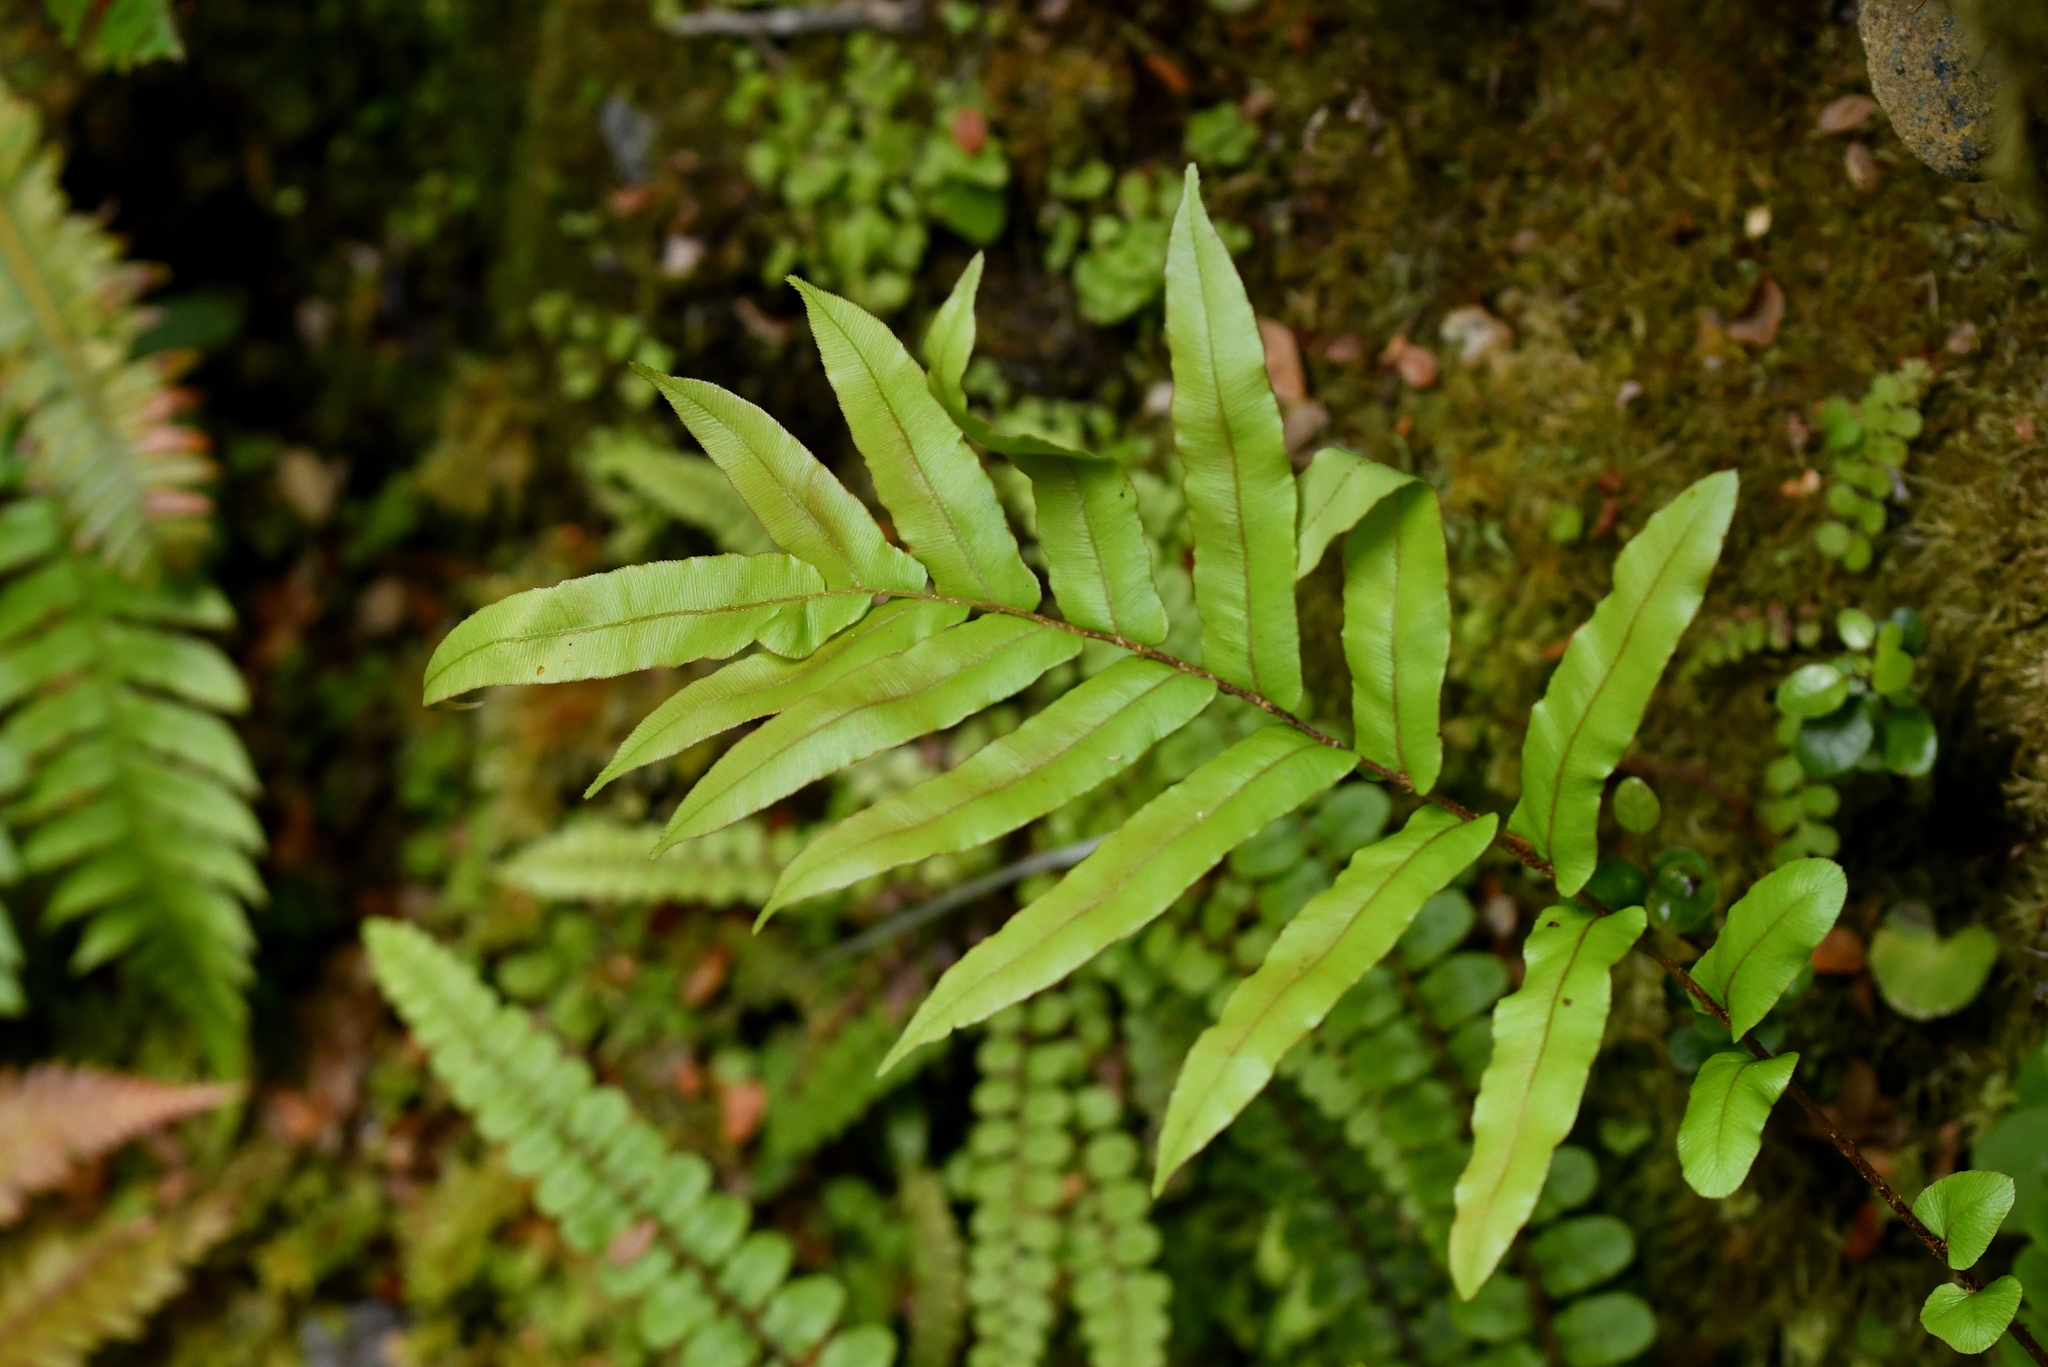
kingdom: Plantae
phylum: Tracheophyta
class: Polypodiopsida
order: Polypodiales
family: Blechnaceae
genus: Parablechnum
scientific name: Parablechnum novae-zelandiae
